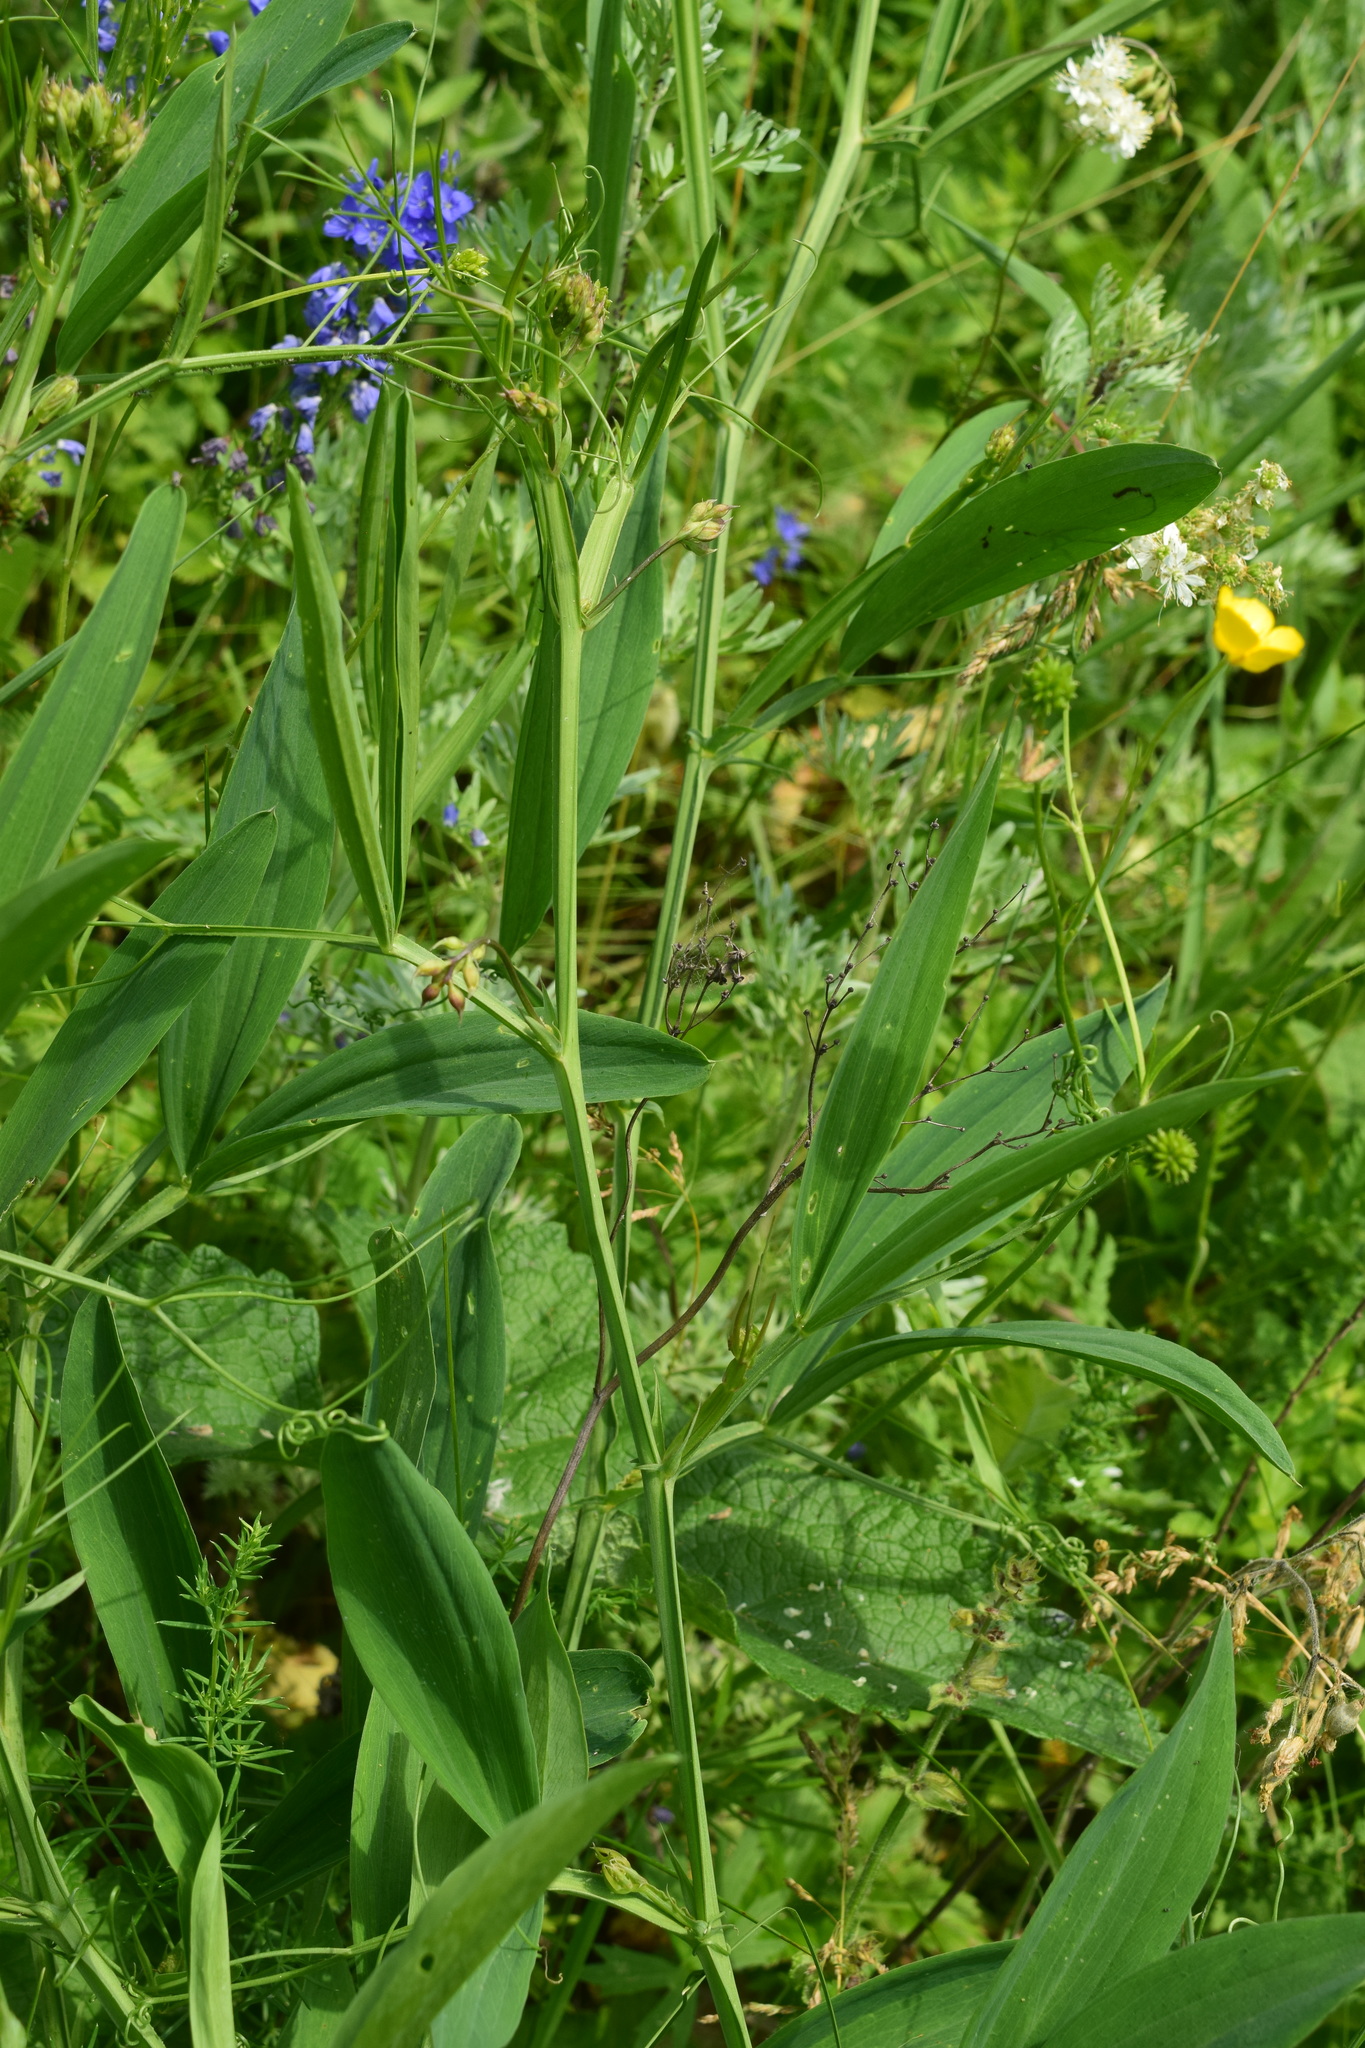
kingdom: Plantae
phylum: Tracheophyta
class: Magnoliopsida
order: Fabales
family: Fabaceae
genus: Lathyrus
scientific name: Lathyrus sylvestris
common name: Flat pea
